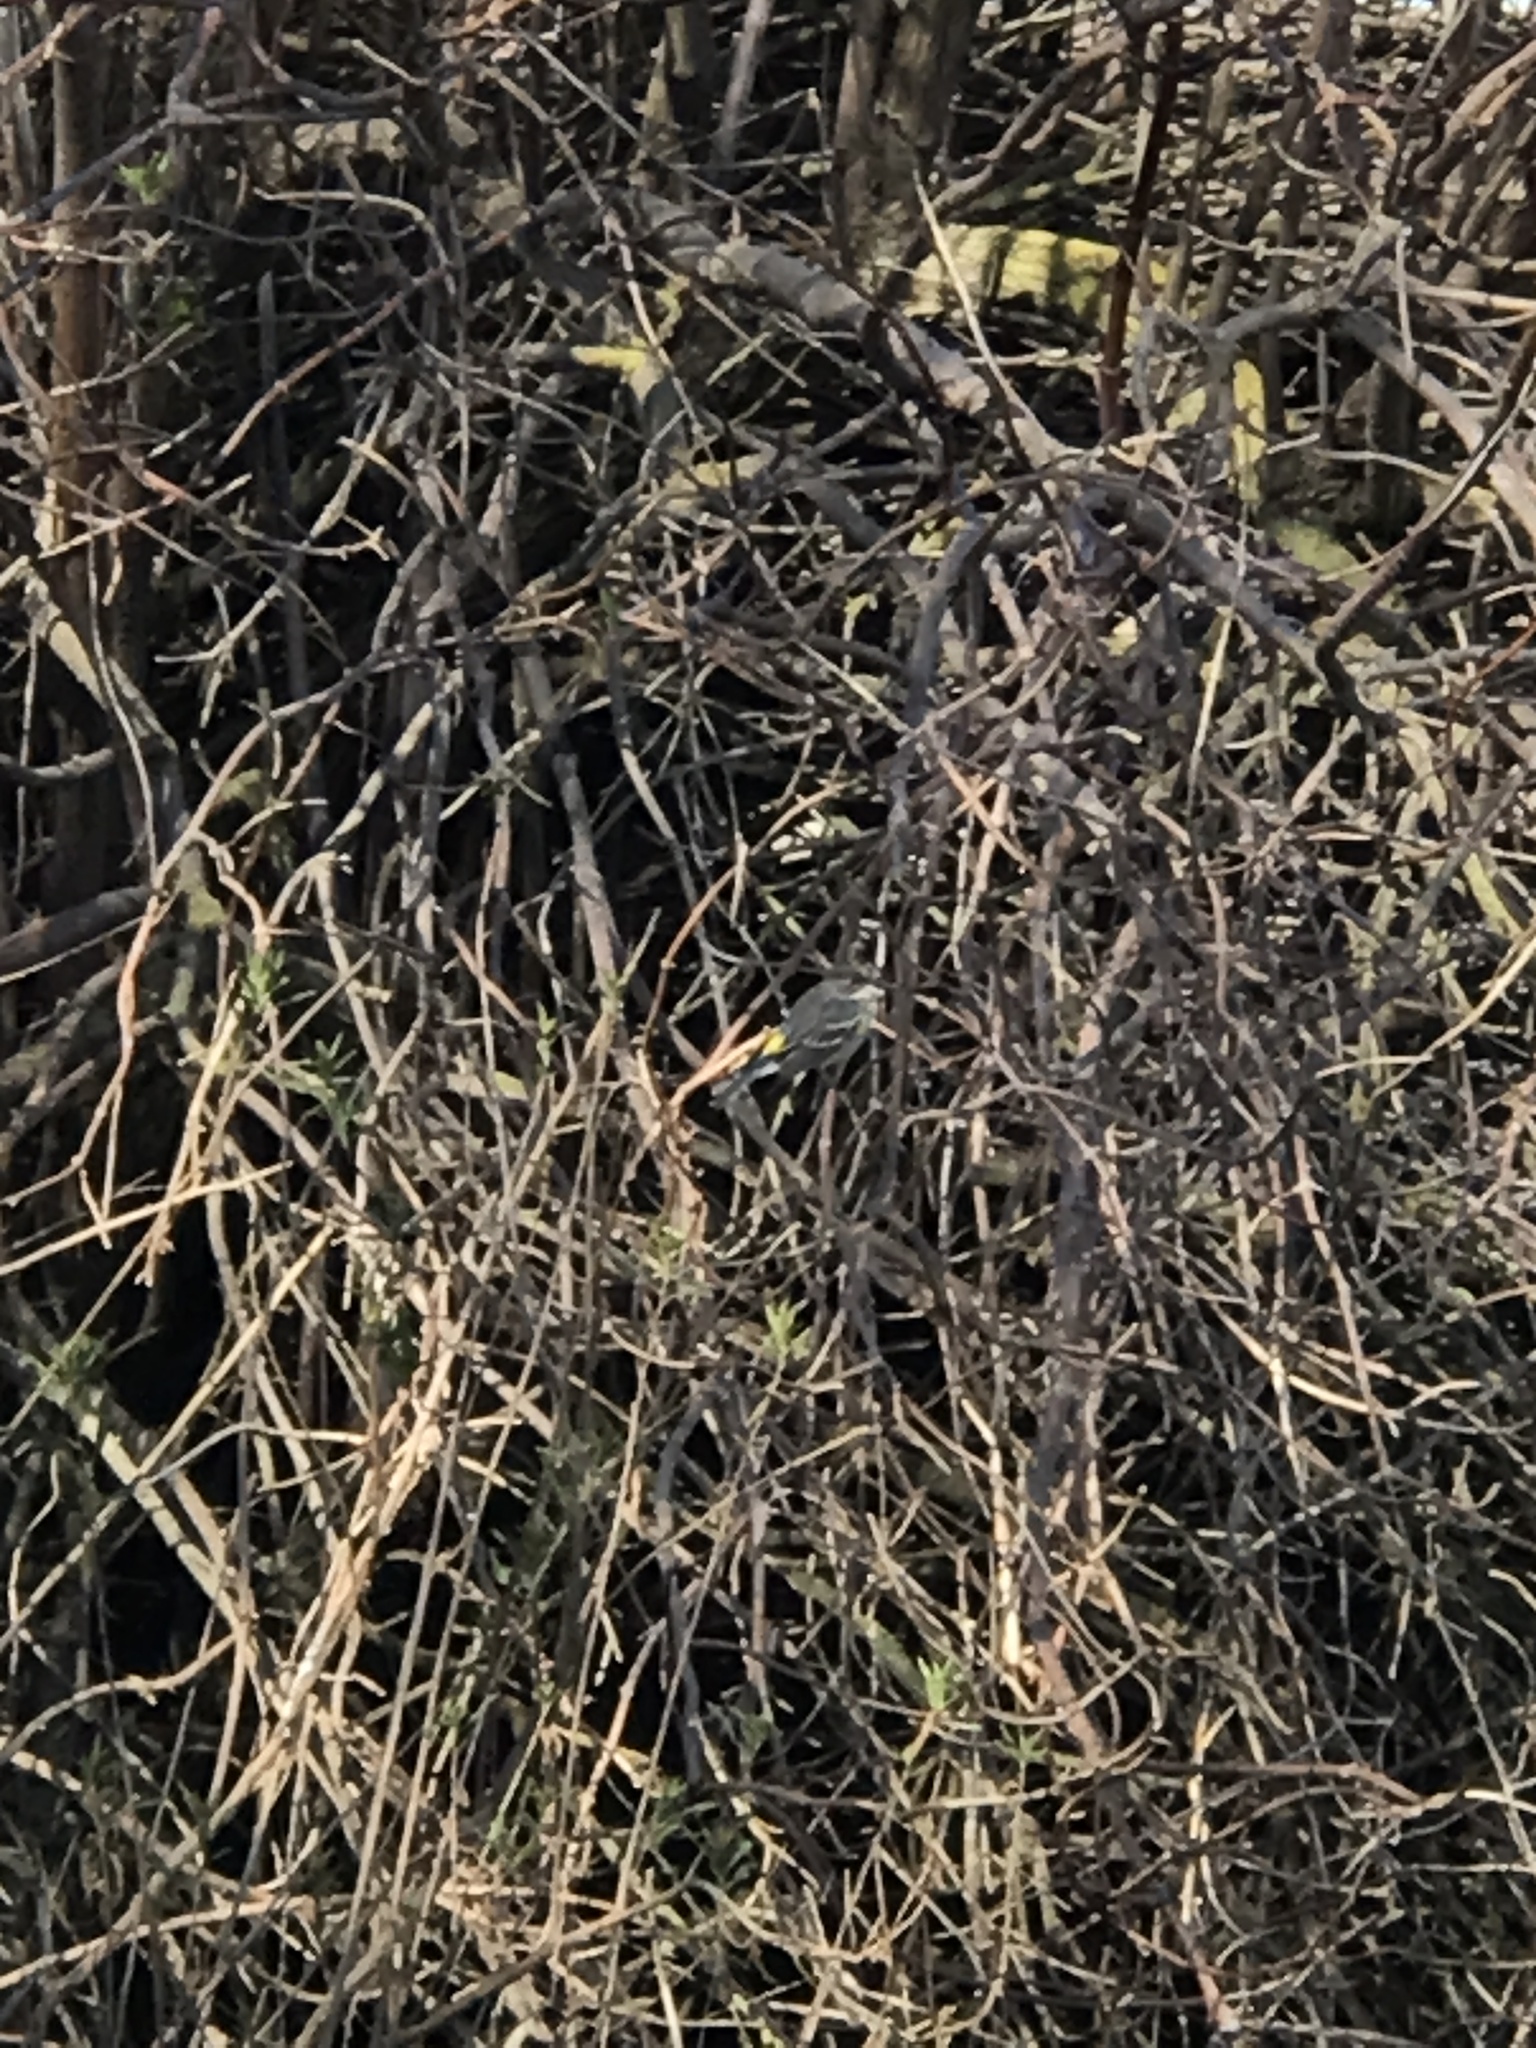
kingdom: Animalia
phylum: Chordata
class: Aves
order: Passeriformes
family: Parulidae
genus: Setophaga
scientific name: Setophaga coronata
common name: Myrtle warbler
